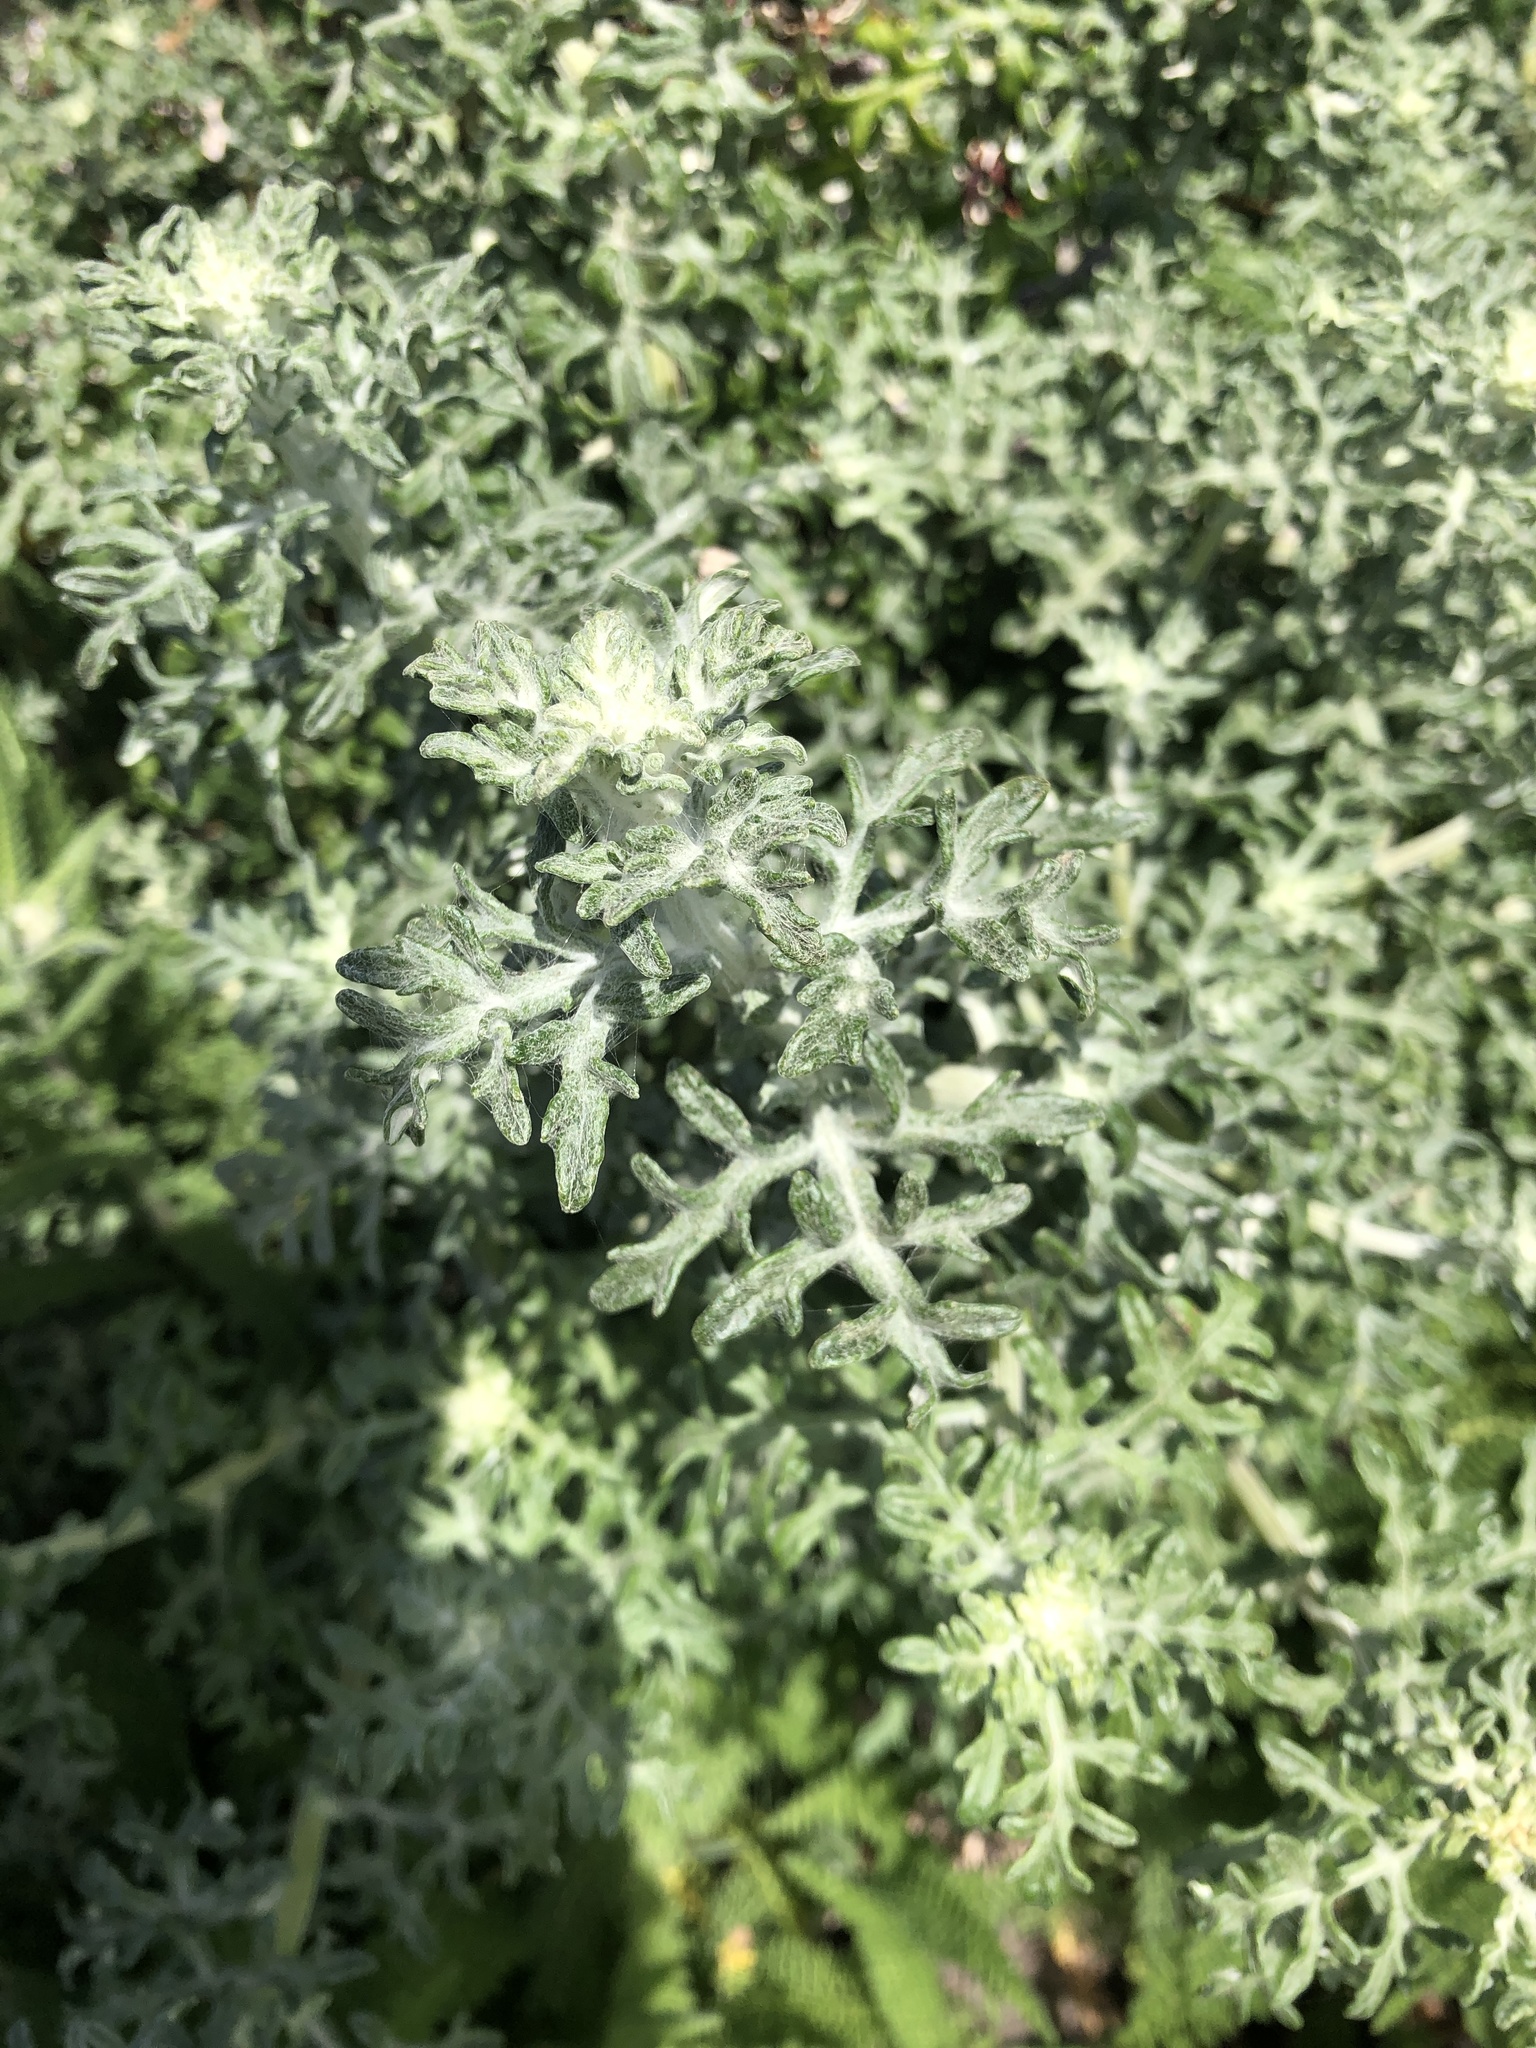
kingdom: Plantae
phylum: Tracheophyta
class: Magnoliopsida
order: Asterales
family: Asteraceae
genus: Eriophyllum
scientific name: Eriophyllum staechadifolium
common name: Lizardtail
